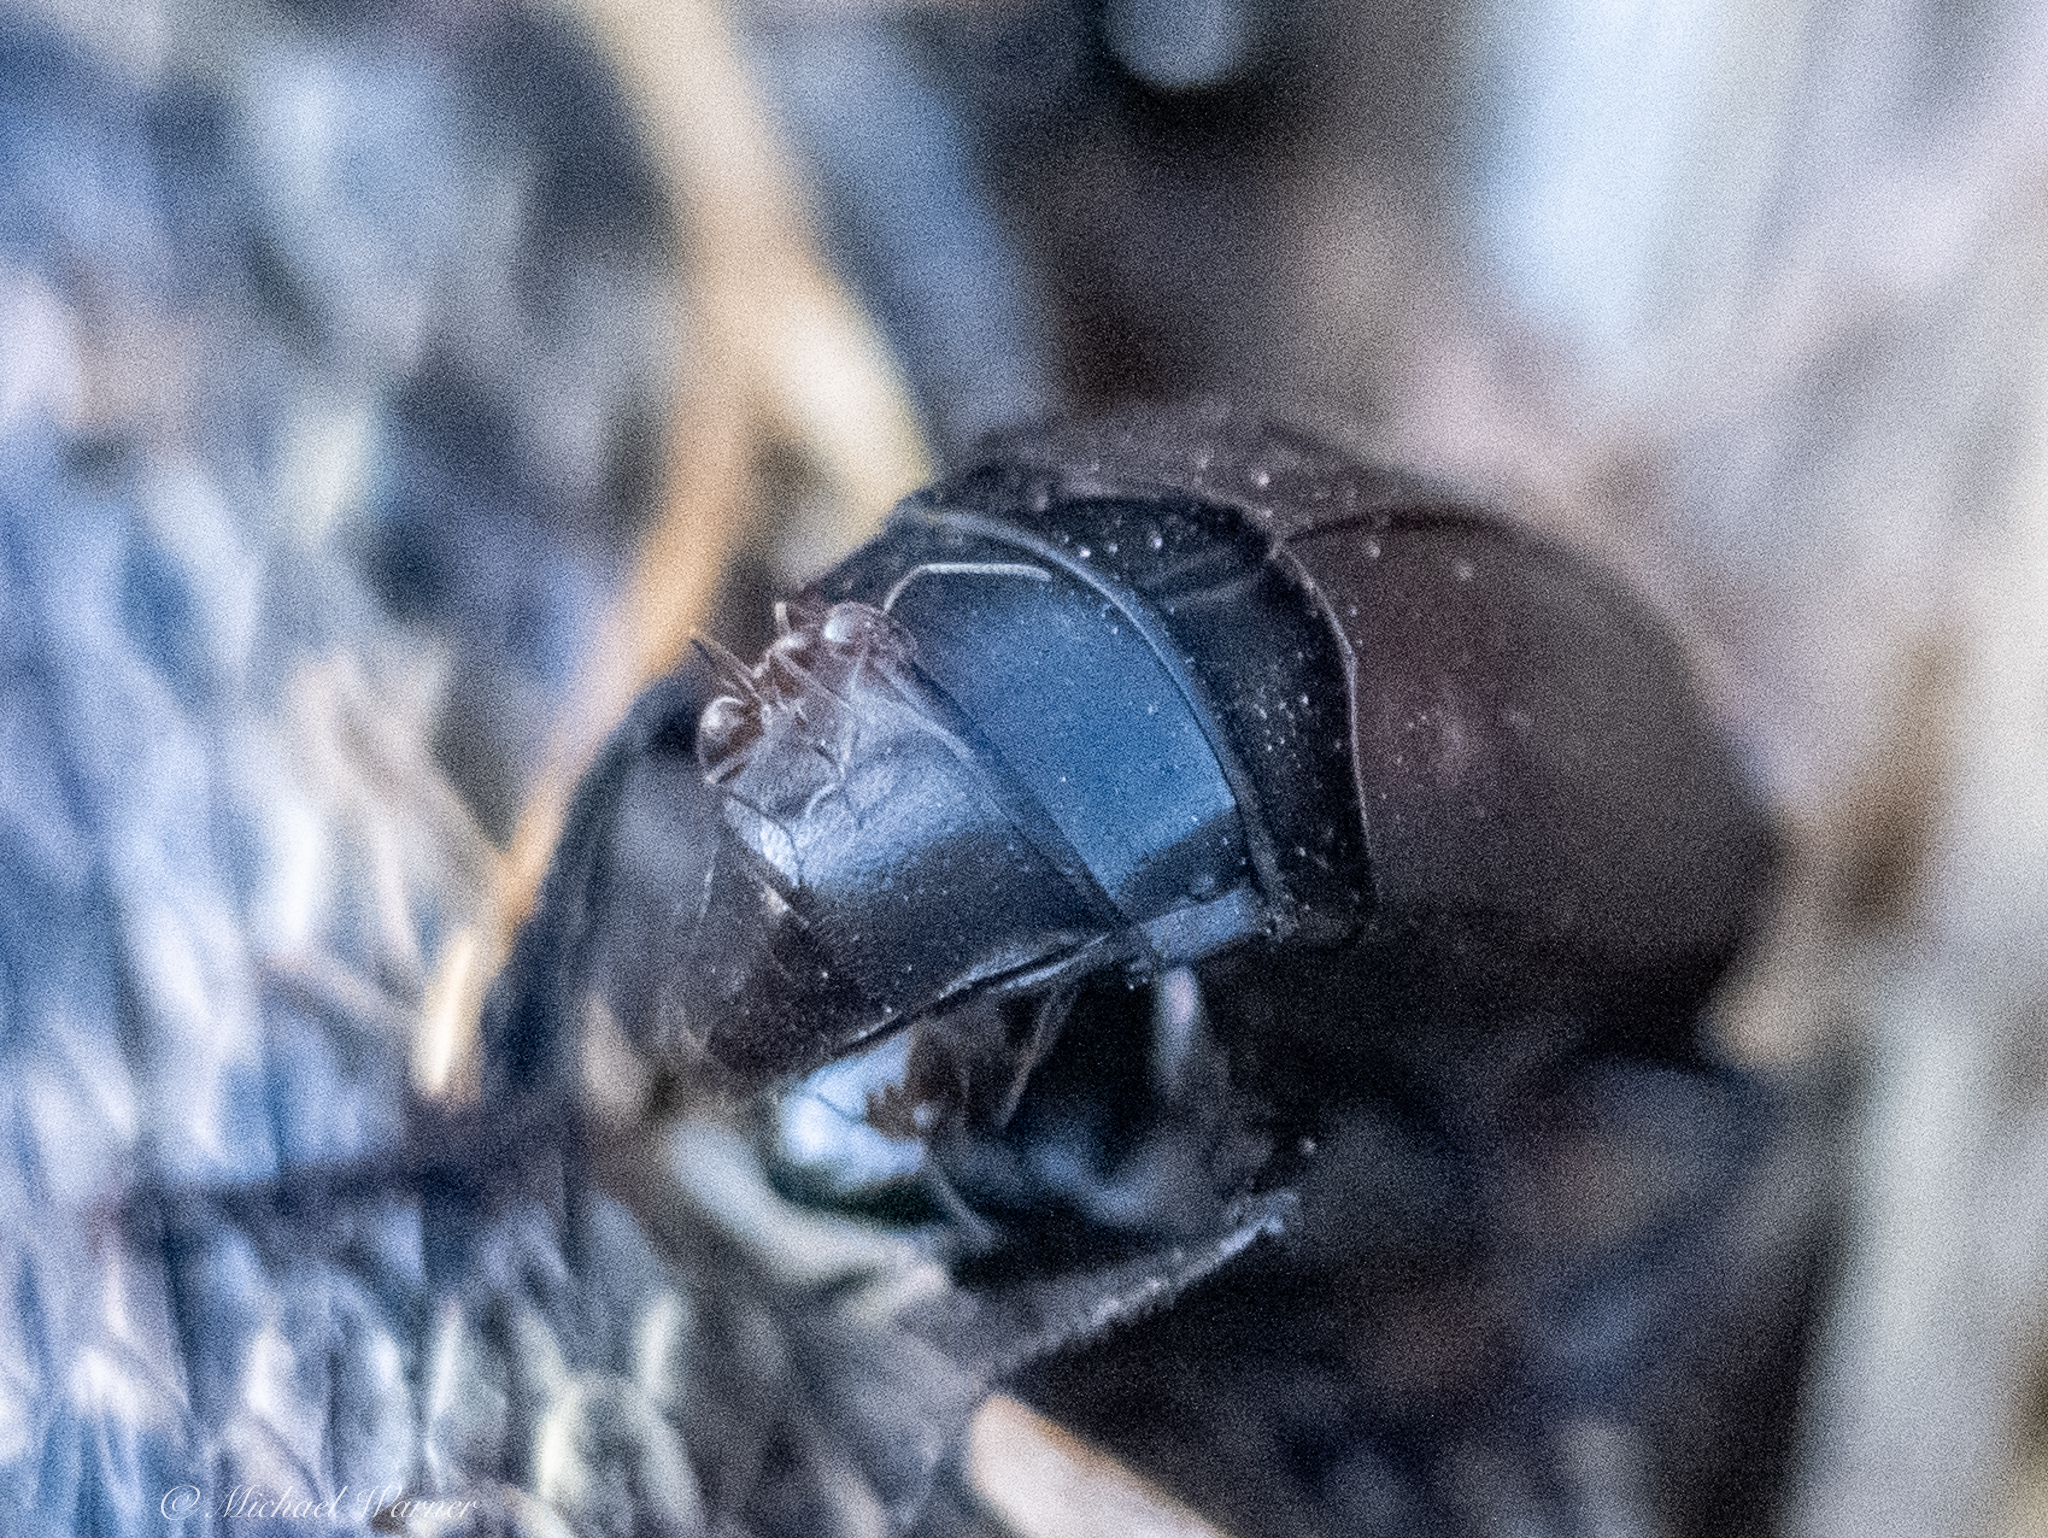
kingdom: Animalia
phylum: Arthropoda
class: Insecta
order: Coleoptera
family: Staphylinidae
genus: Nicrophorus
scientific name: Nicrophorus nigrita
